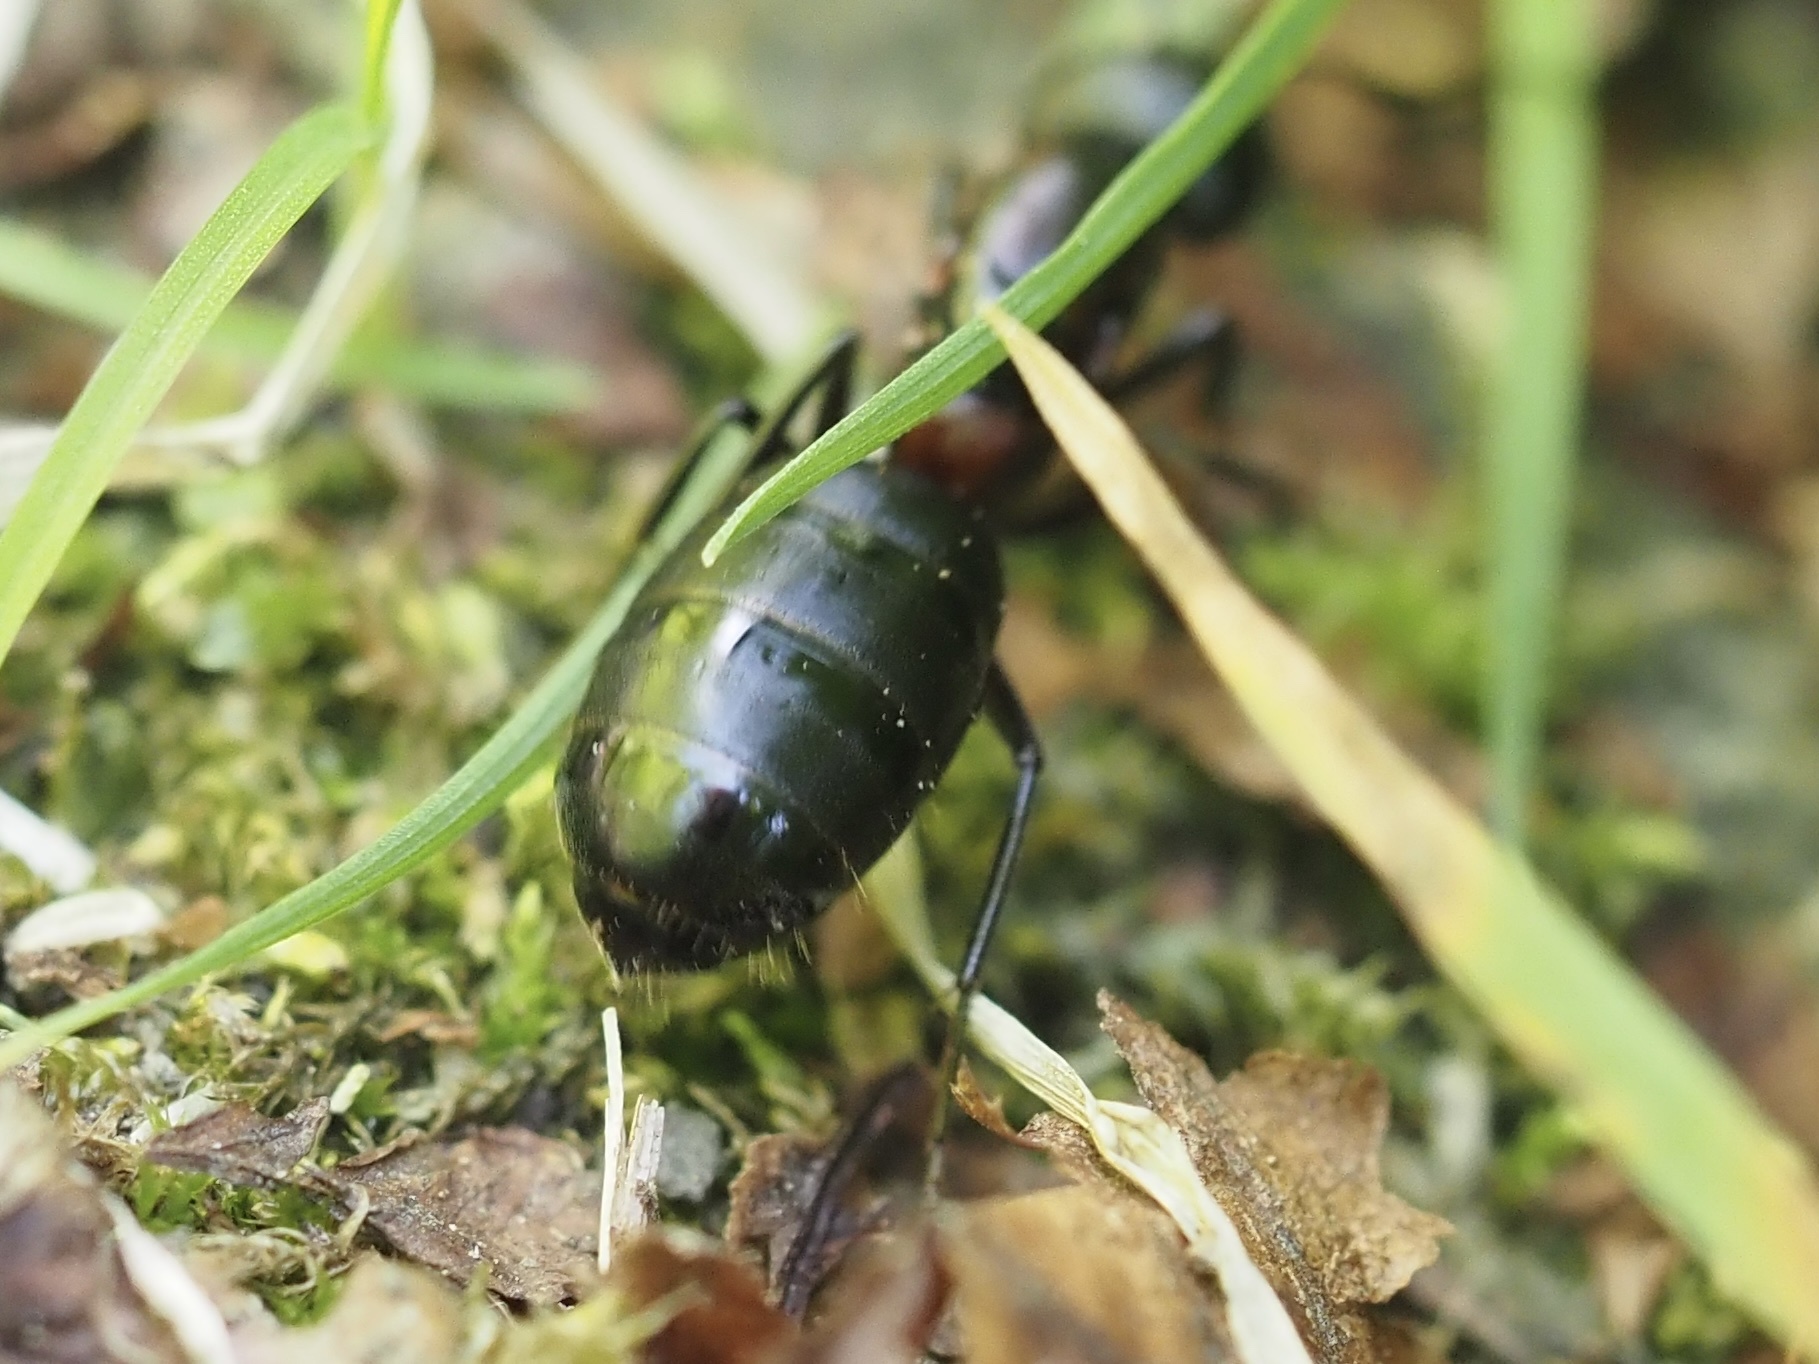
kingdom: Animalia
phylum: Arthropoda
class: Insecta
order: Hymenoptera
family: Formicidae
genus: Camponotus
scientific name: Camponotus novaeboracensis
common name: New york carpenter ant
